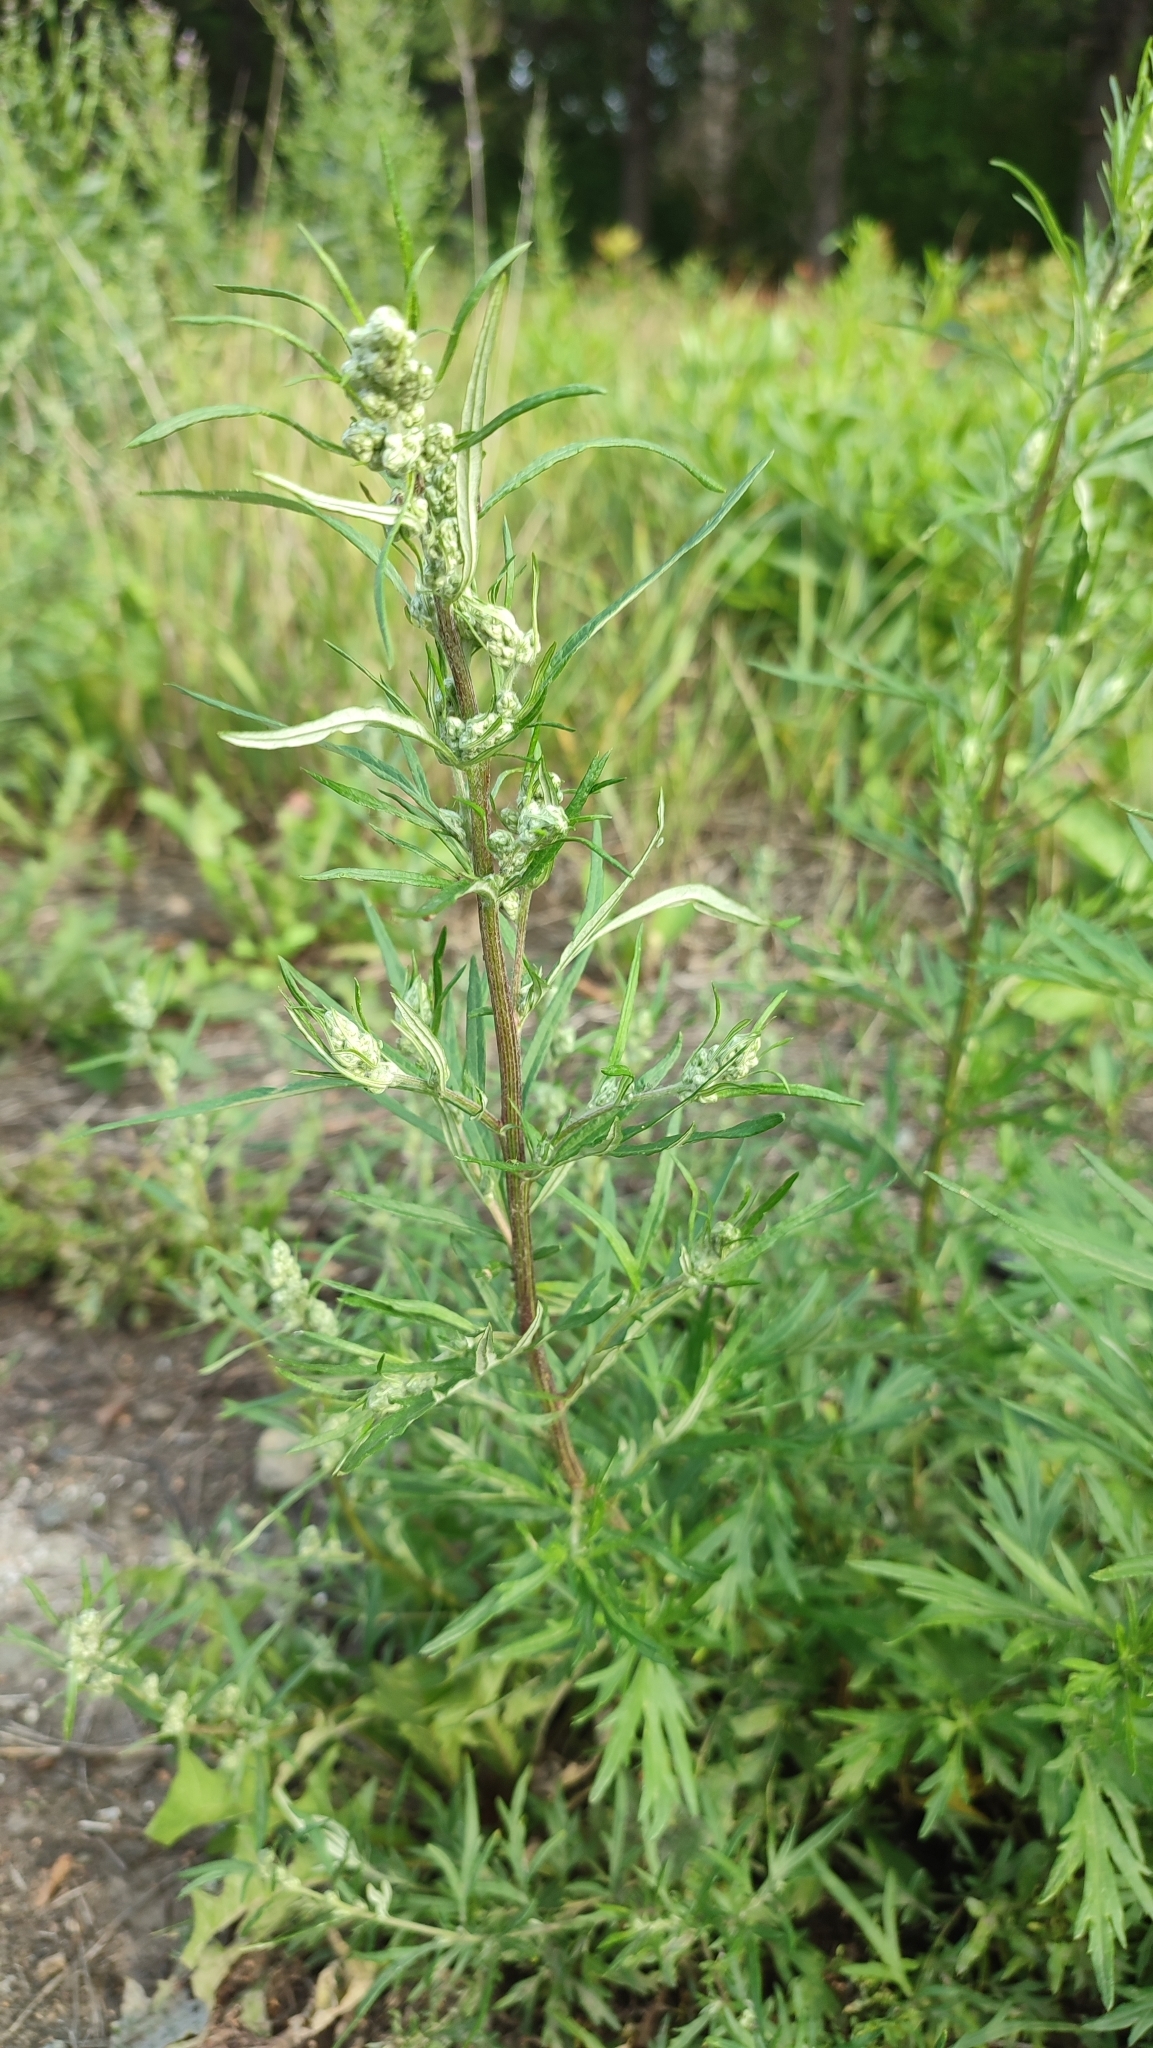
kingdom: Plantae
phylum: Tracheophyta
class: Magnoliopsida
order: Asterales
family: Asteraceae
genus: Artemisia
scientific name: Artemisia vulgaris
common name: Mugwort
